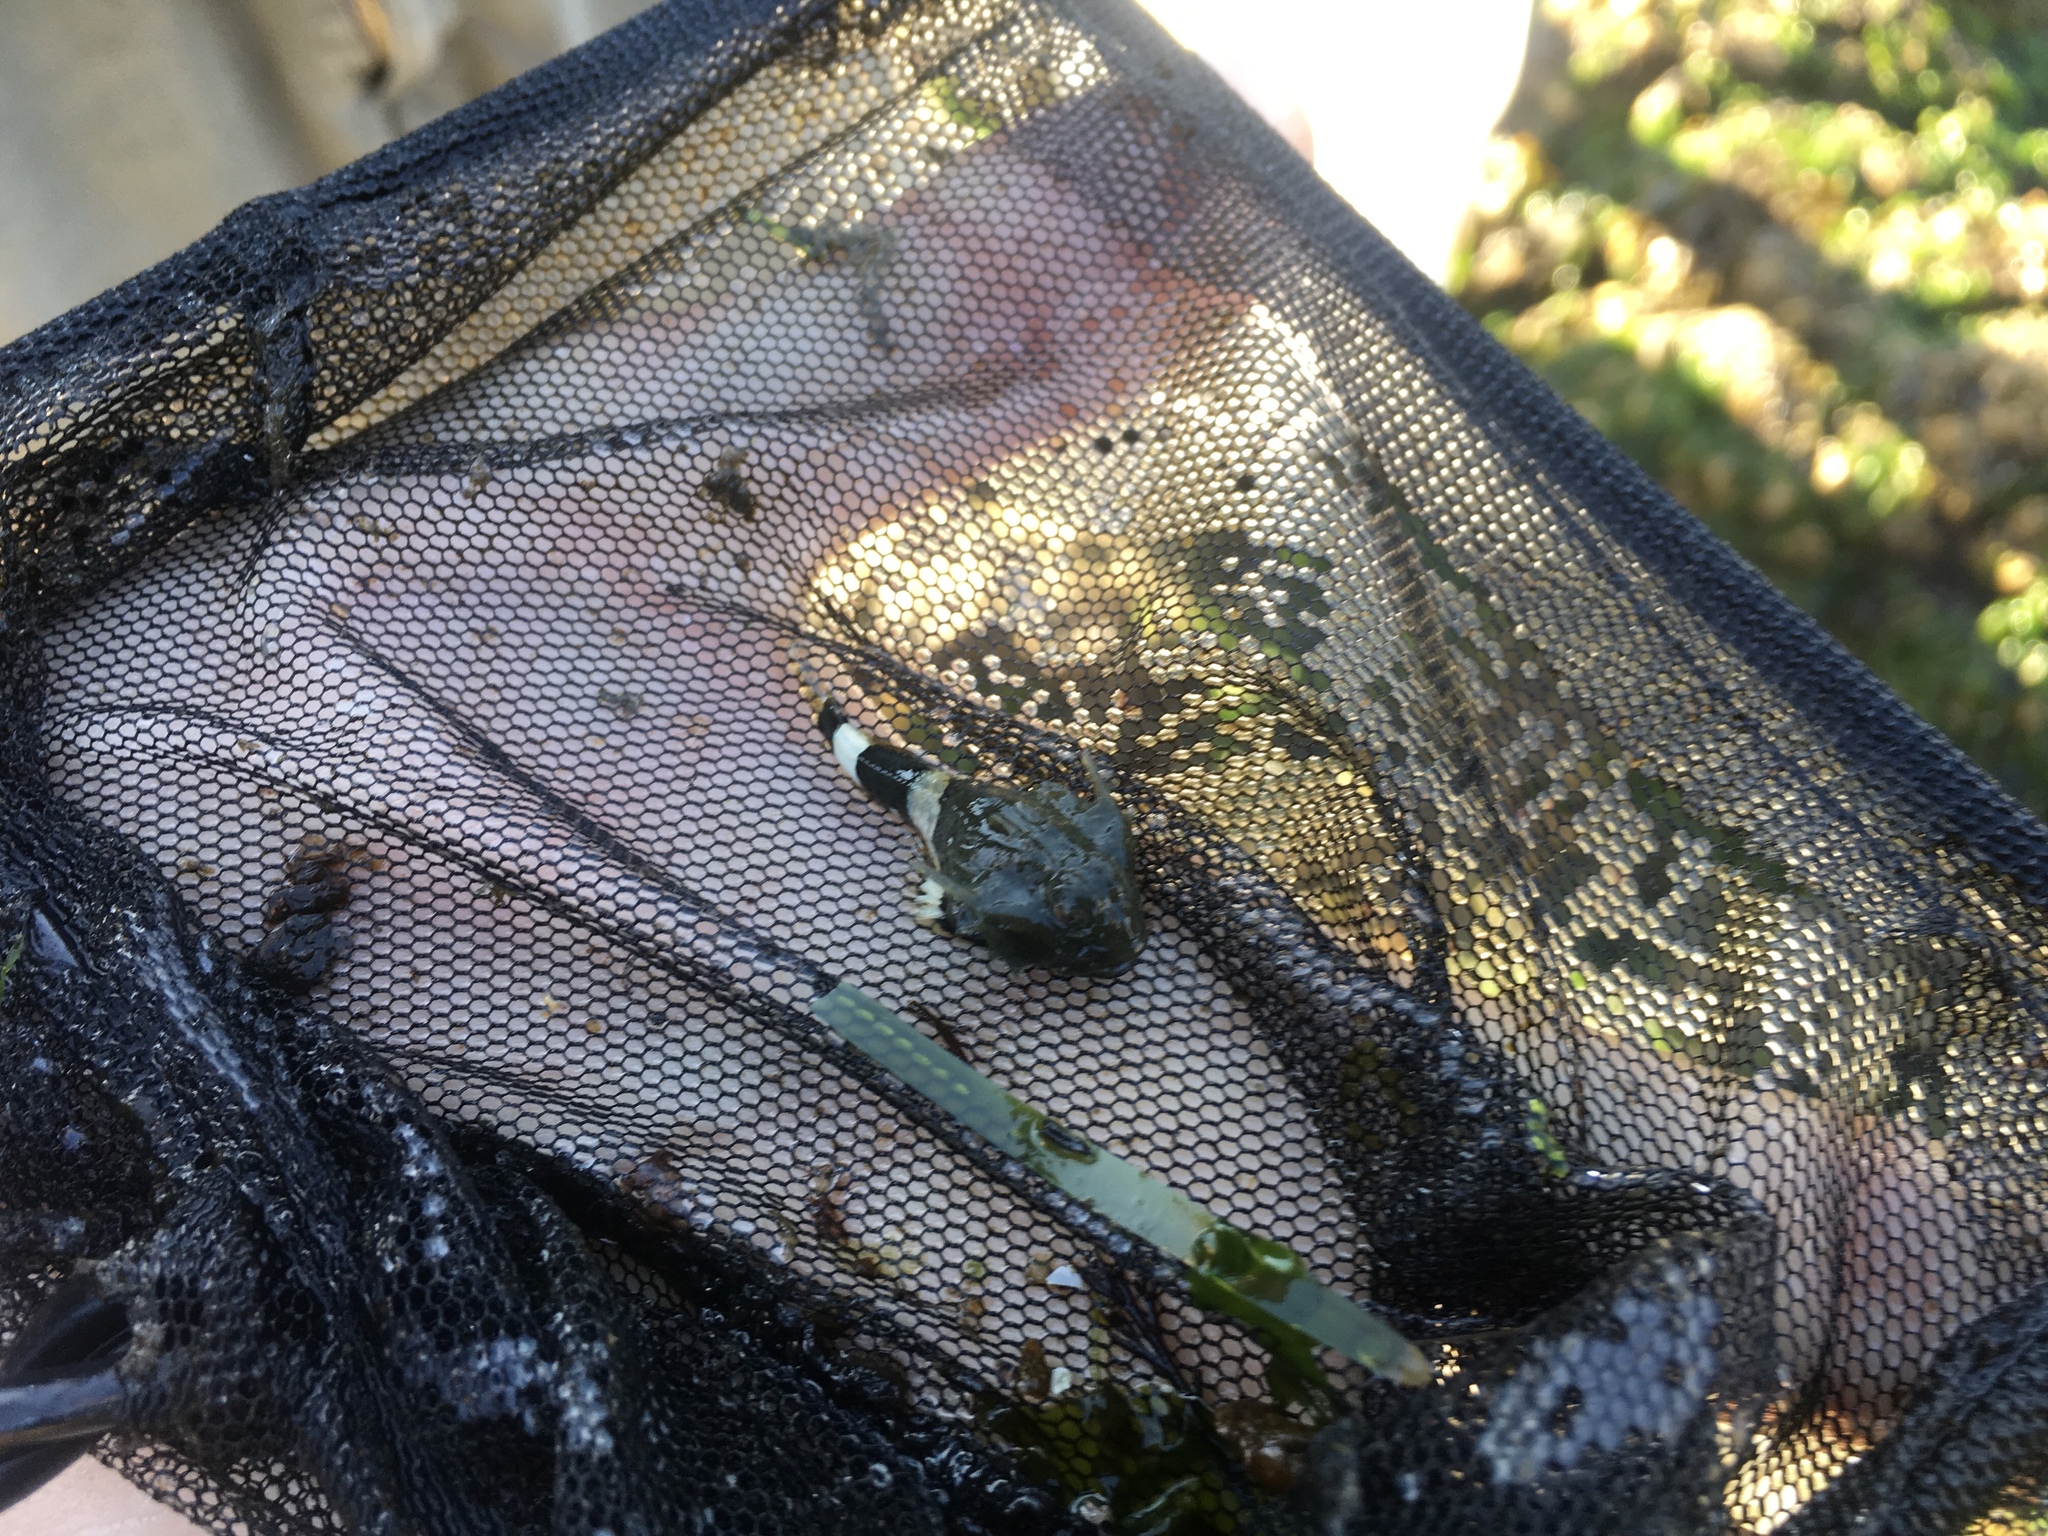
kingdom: Animalia
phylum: Chordata
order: Scorpaeniformes
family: Cottidae
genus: Enophrys
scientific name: Enophrys bison
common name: Buffalo sculpin
